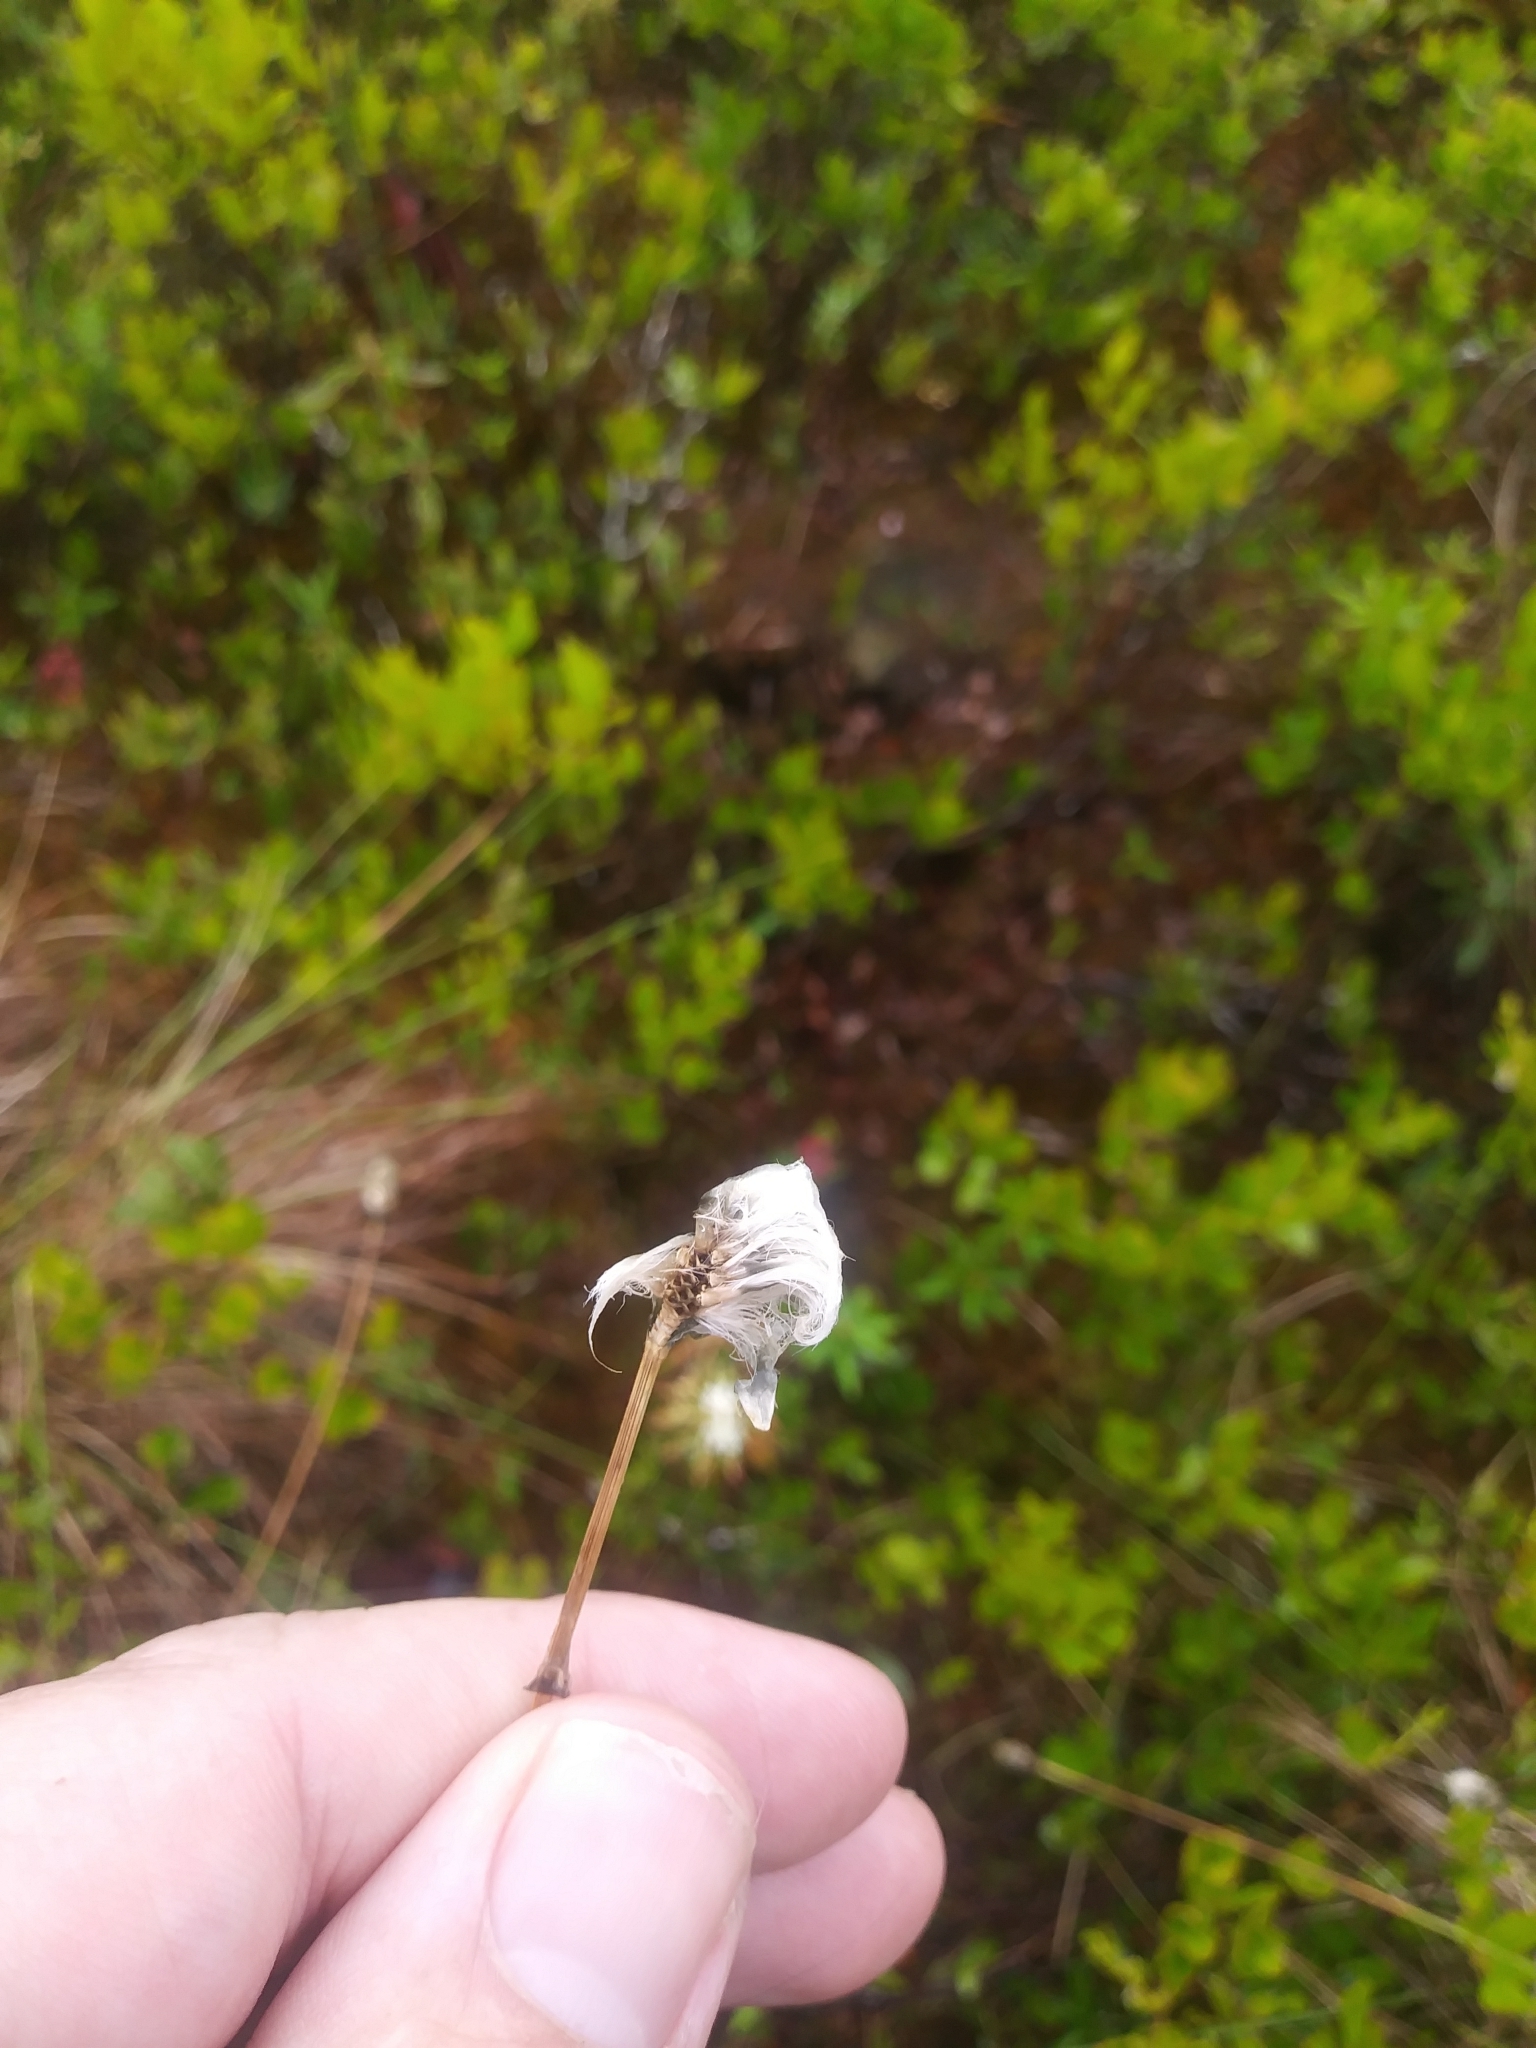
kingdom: Plantae
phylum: Tracheophyta
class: Liliopsida
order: Poales
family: Cyperaceae
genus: Eriophorum
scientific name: Eriophorum vaginatum
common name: Hare's-tail cottongrass
